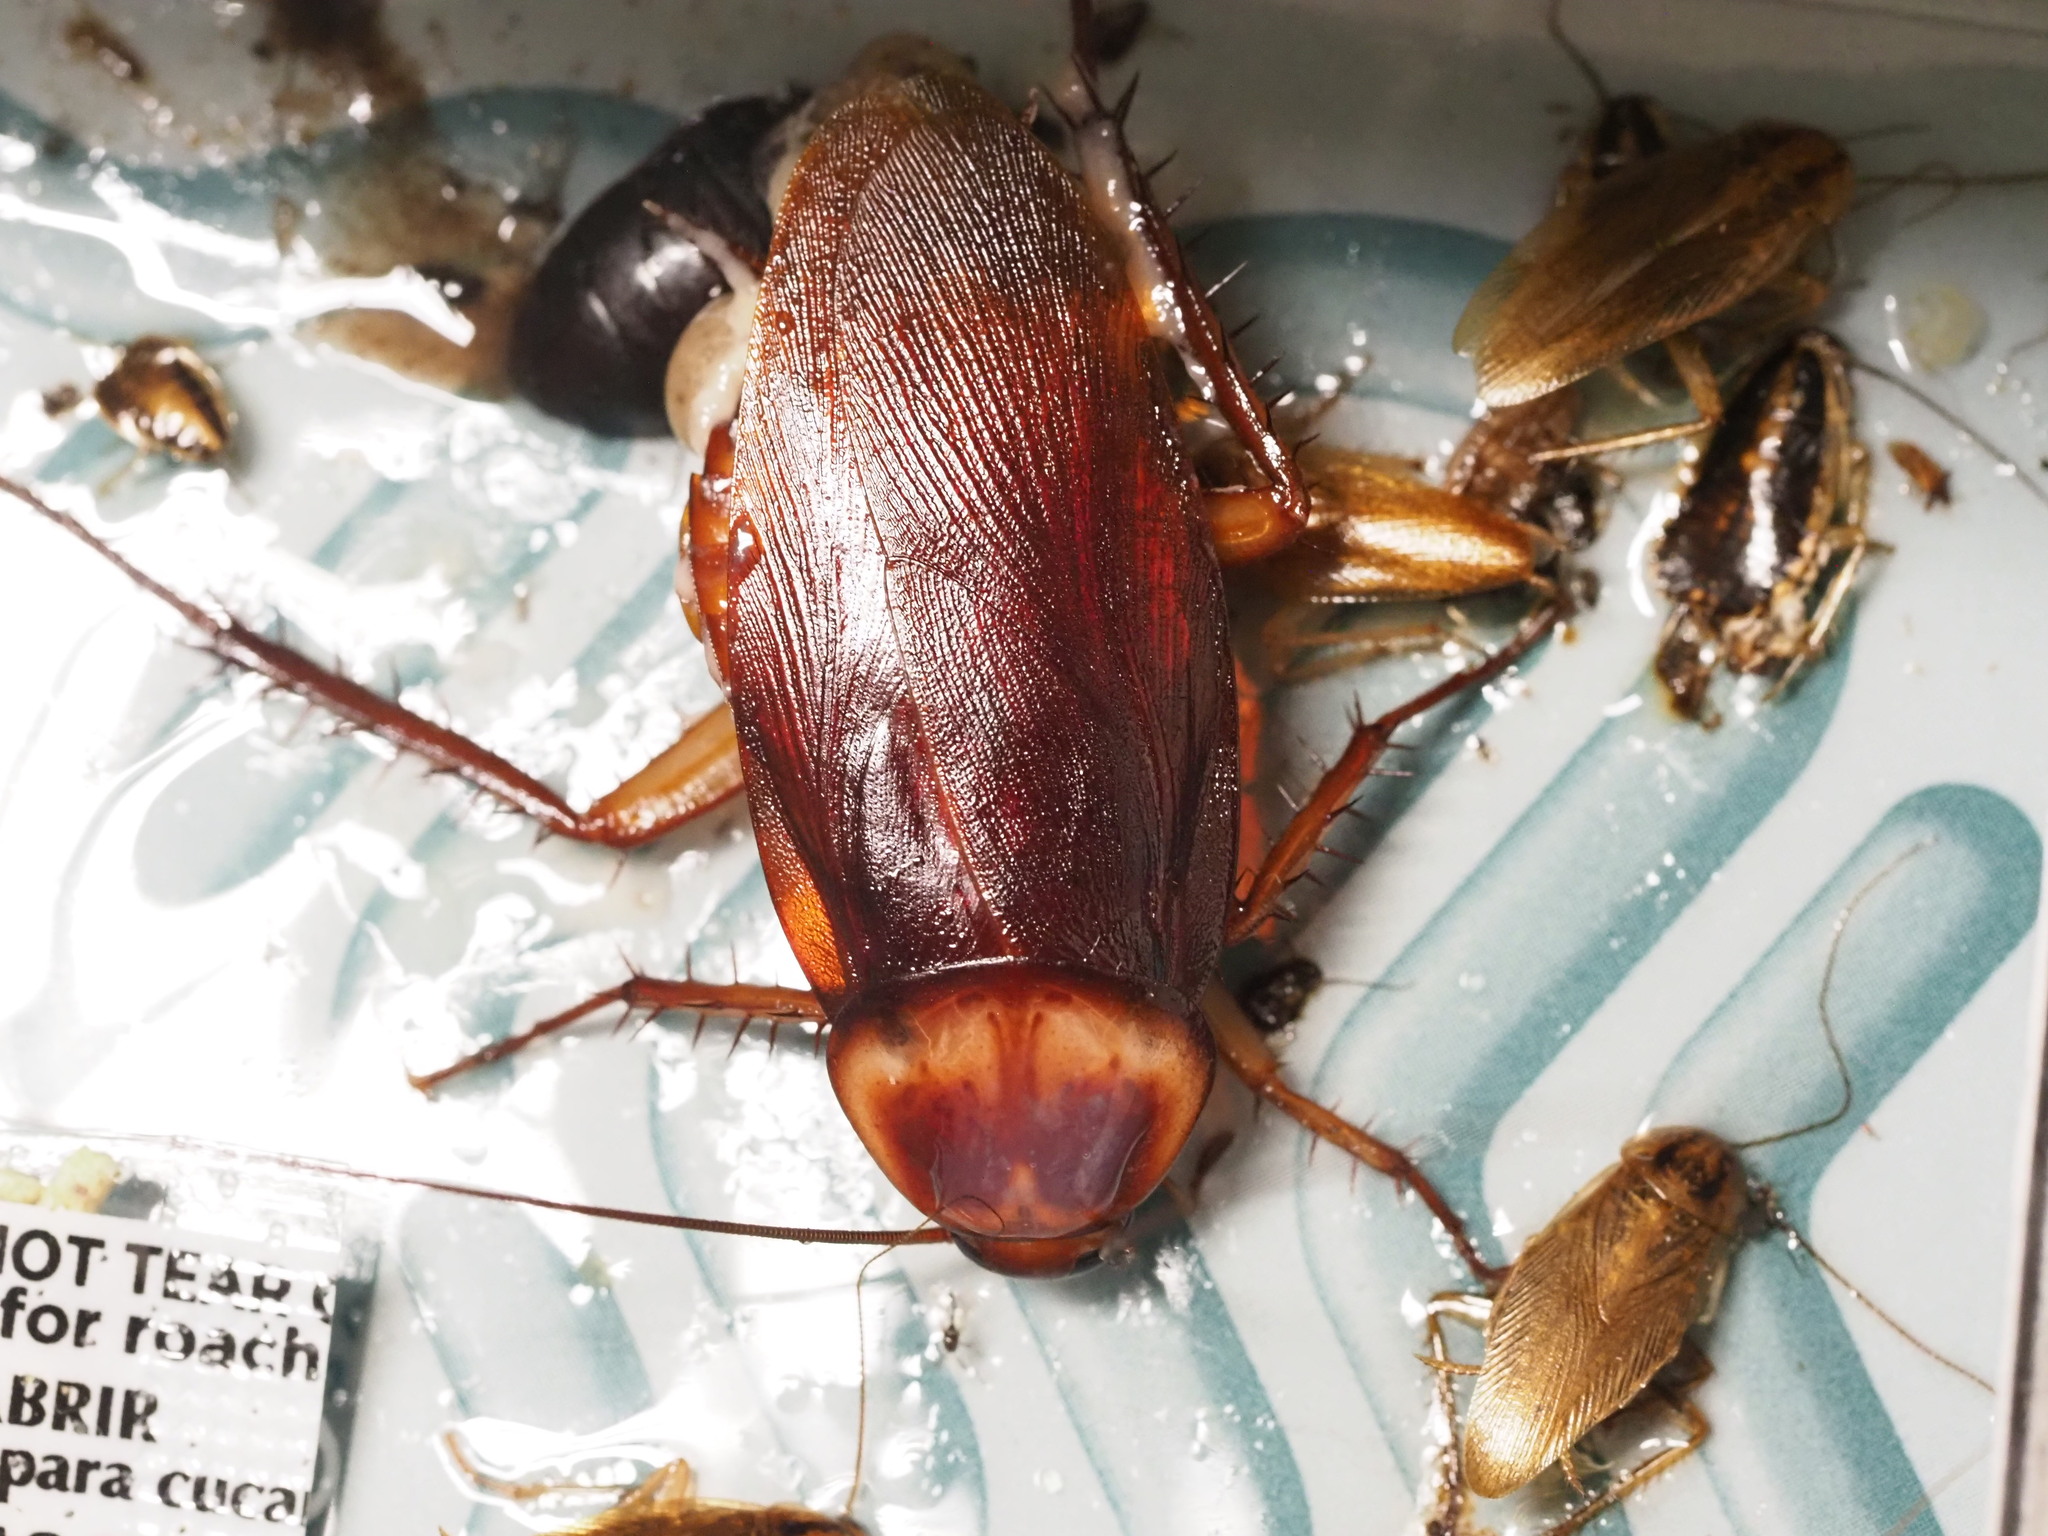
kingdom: Animalia
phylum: Arthropoda
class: Insecta
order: Blattodea
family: Blattidae
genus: Periplaneta
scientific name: Periplaneta americana
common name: American cockroach
